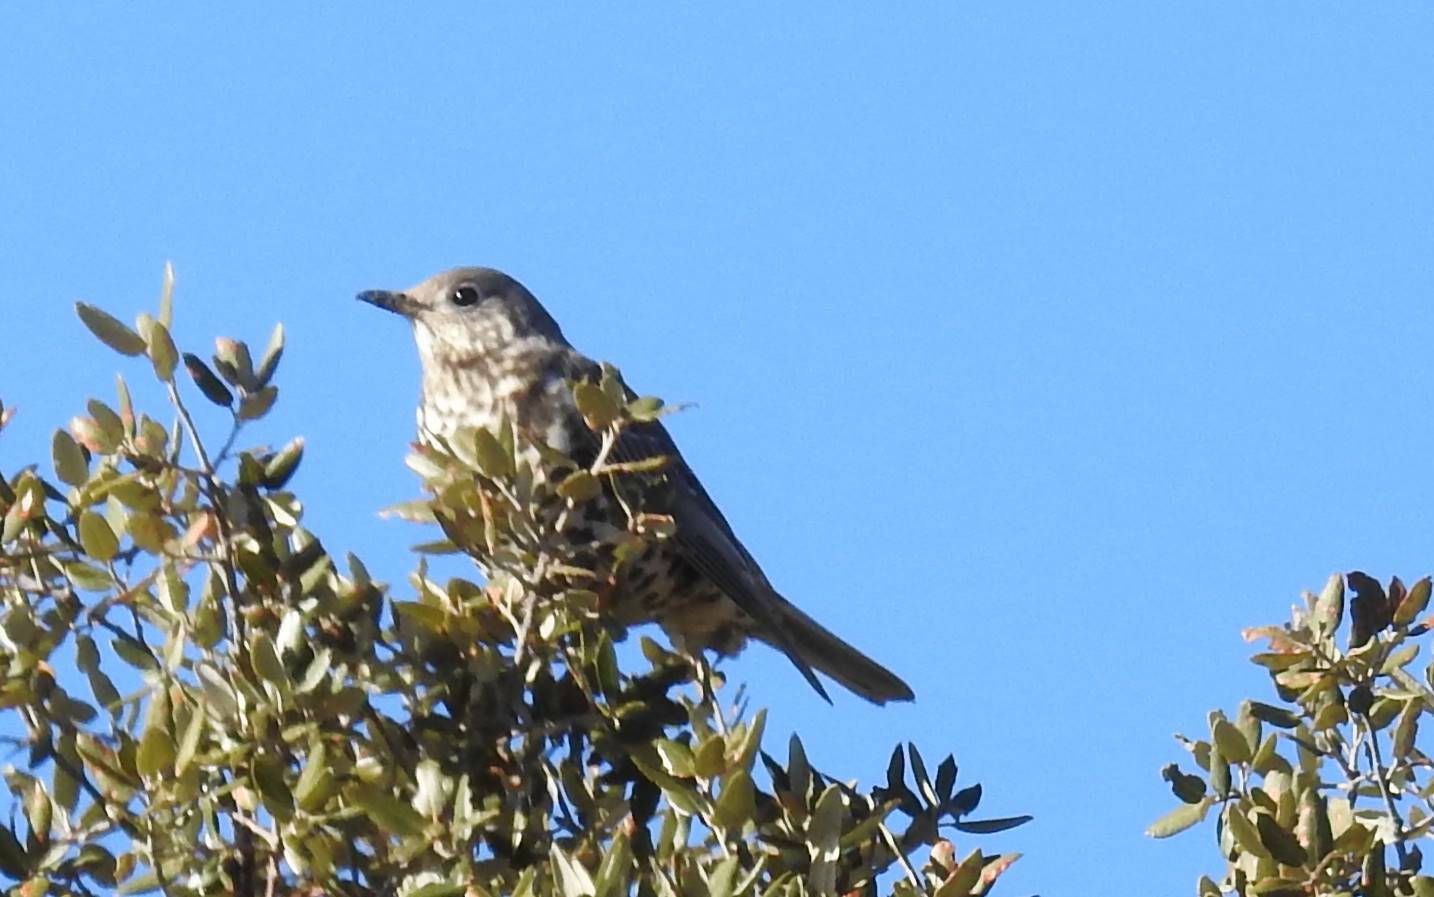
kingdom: Animalia
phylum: Chordata
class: Aves
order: Passeriformes
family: Turdidae
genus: Turdus
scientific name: Turdus viscivorus
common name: Mistle thrush
